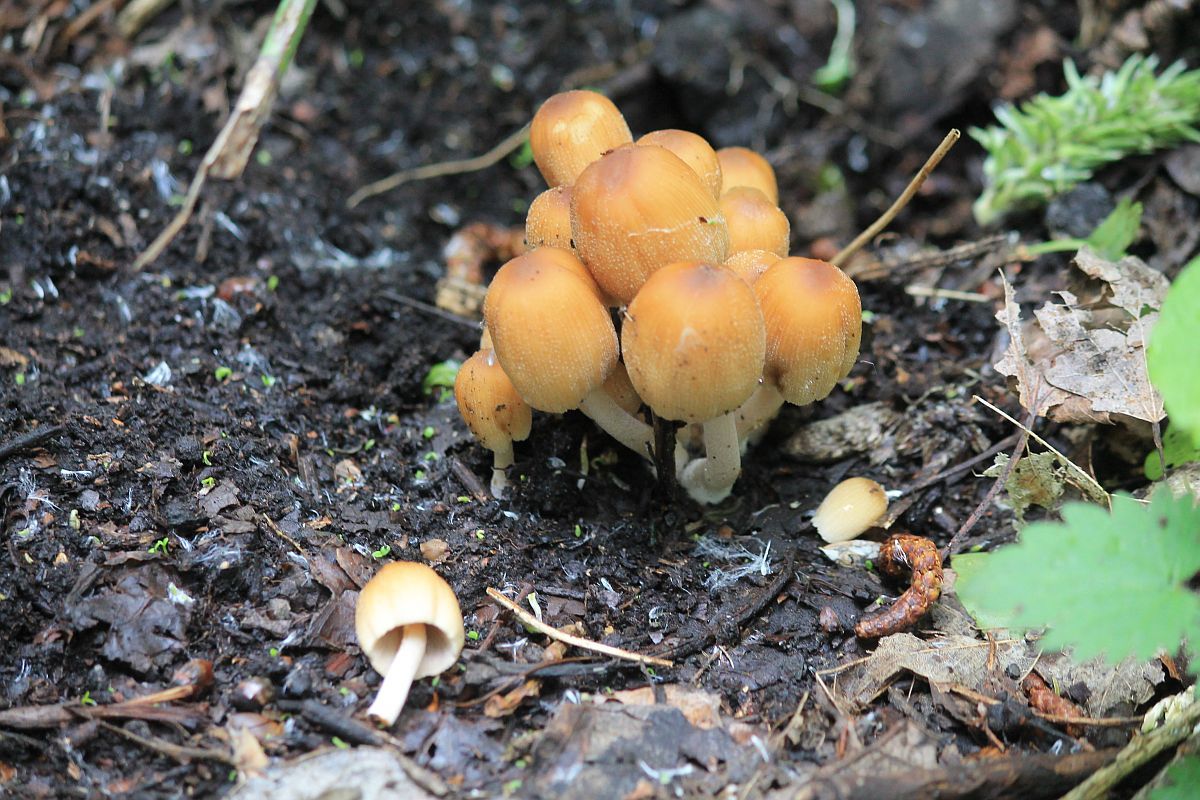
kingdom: Fungi
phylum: Basidiomycota
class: Agaricomycetes
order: Agaricales
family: Psathyrellaceae
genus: Coprinellus
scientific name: Coprinellus micaceus
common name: Glistening ink-cap
